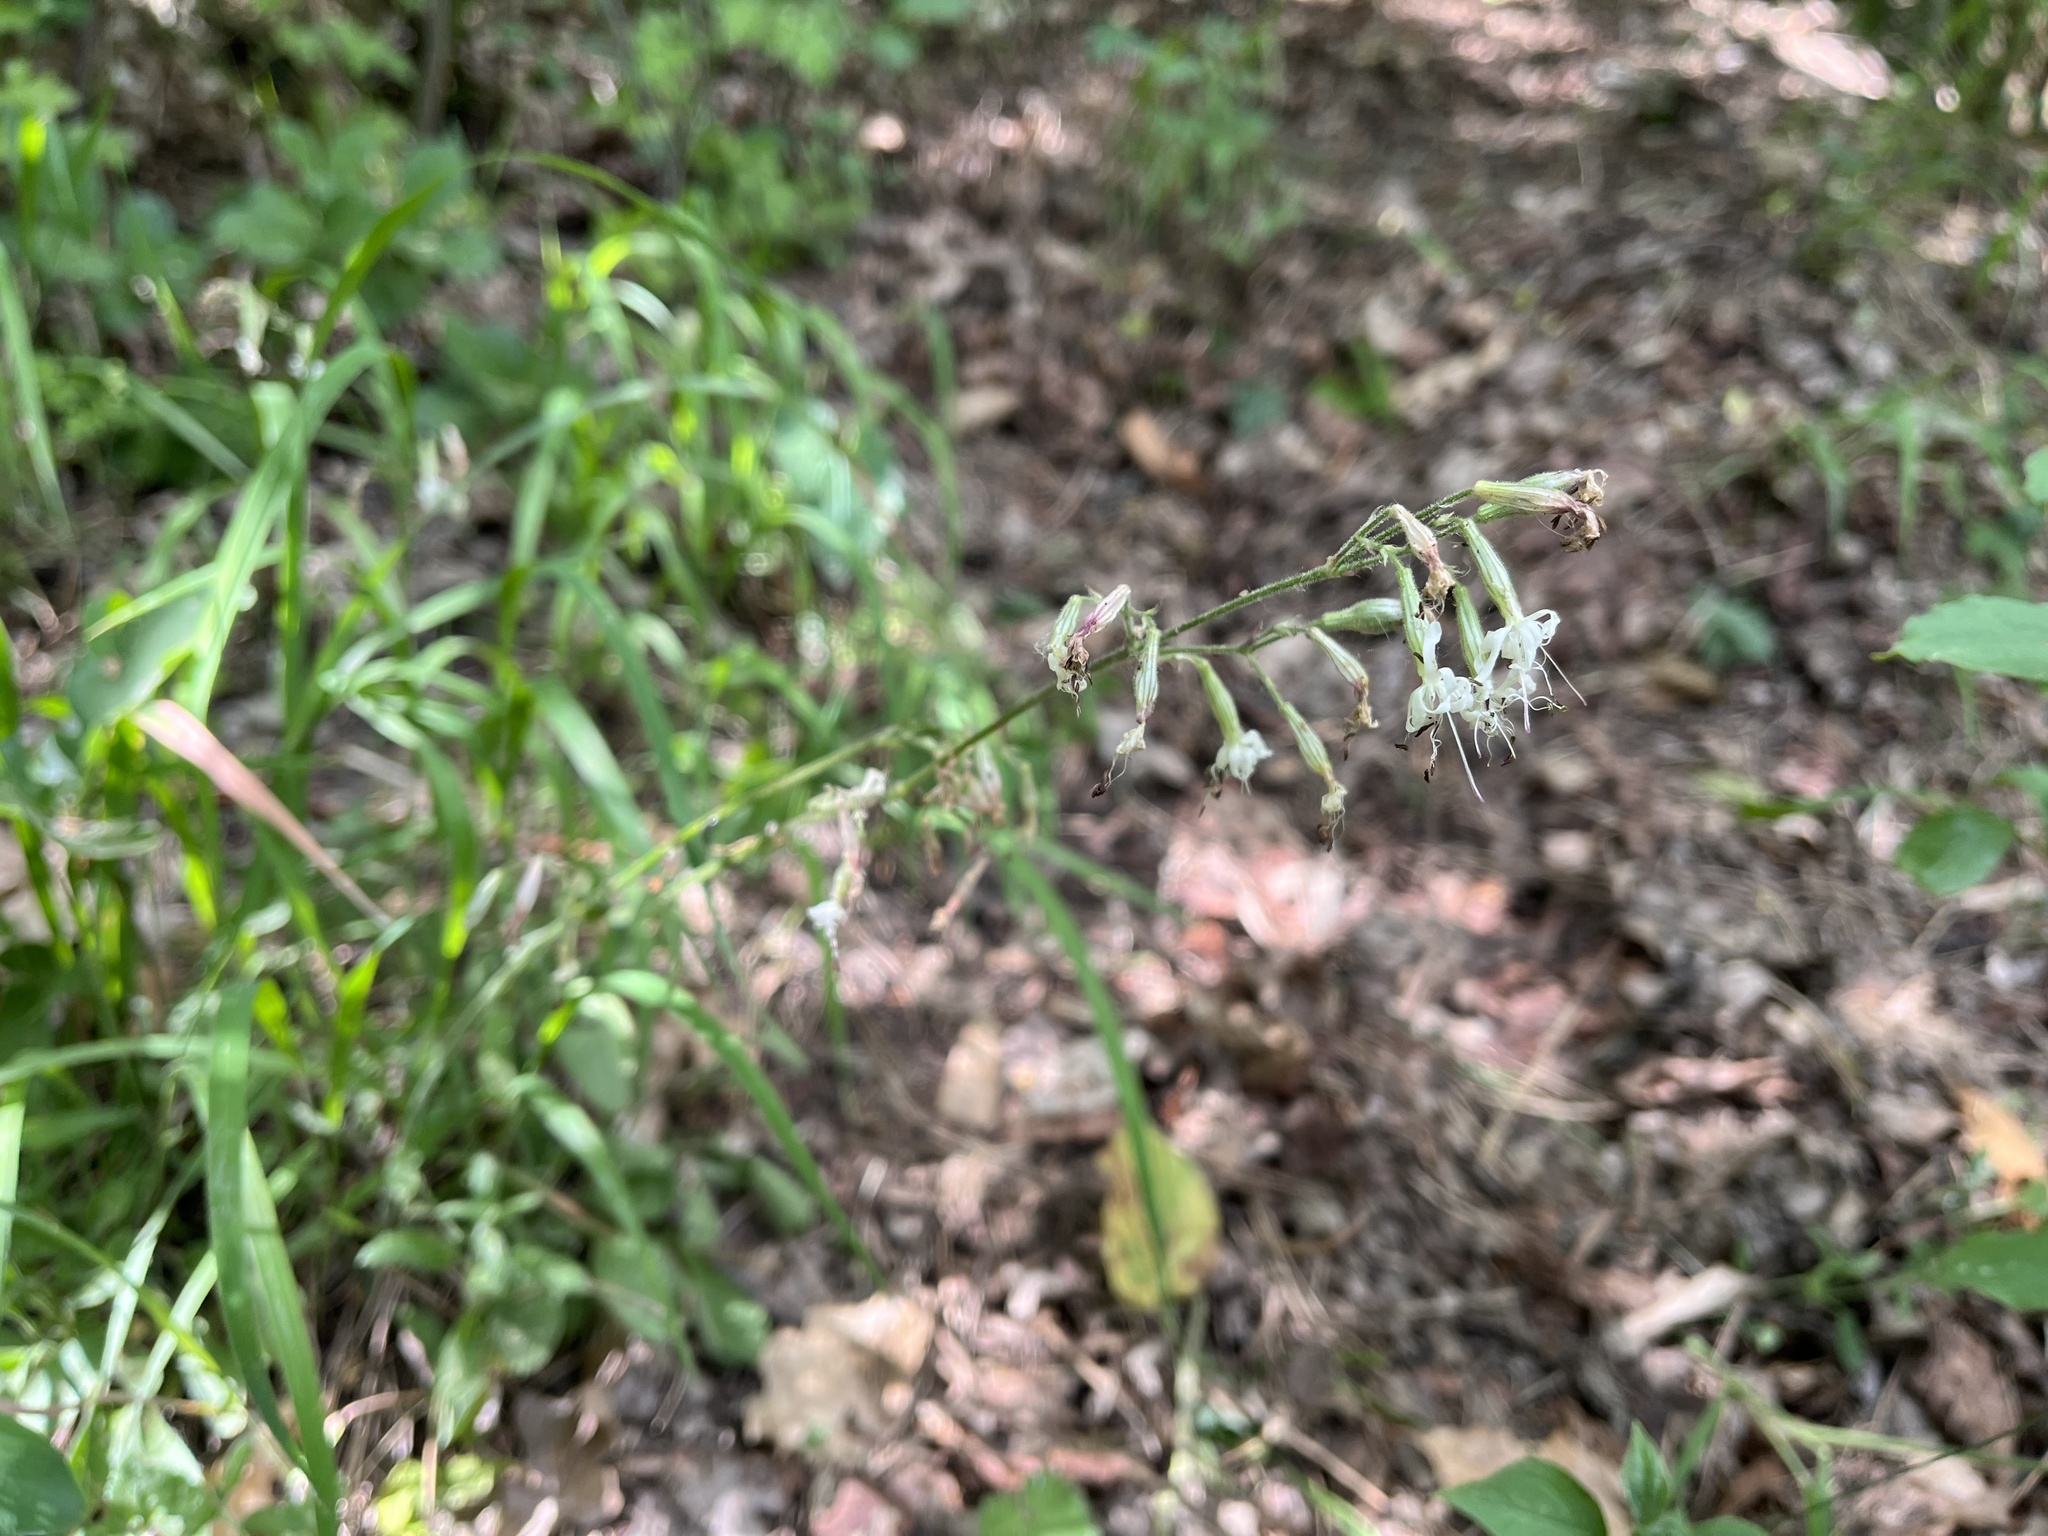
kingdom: Plantae
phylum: Tracheophyta
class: Magnoliopsida
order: Caryophyllales
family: Caryophyllaceae
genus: Silene
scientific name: Silene nutans
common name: Nottingham catchfly
